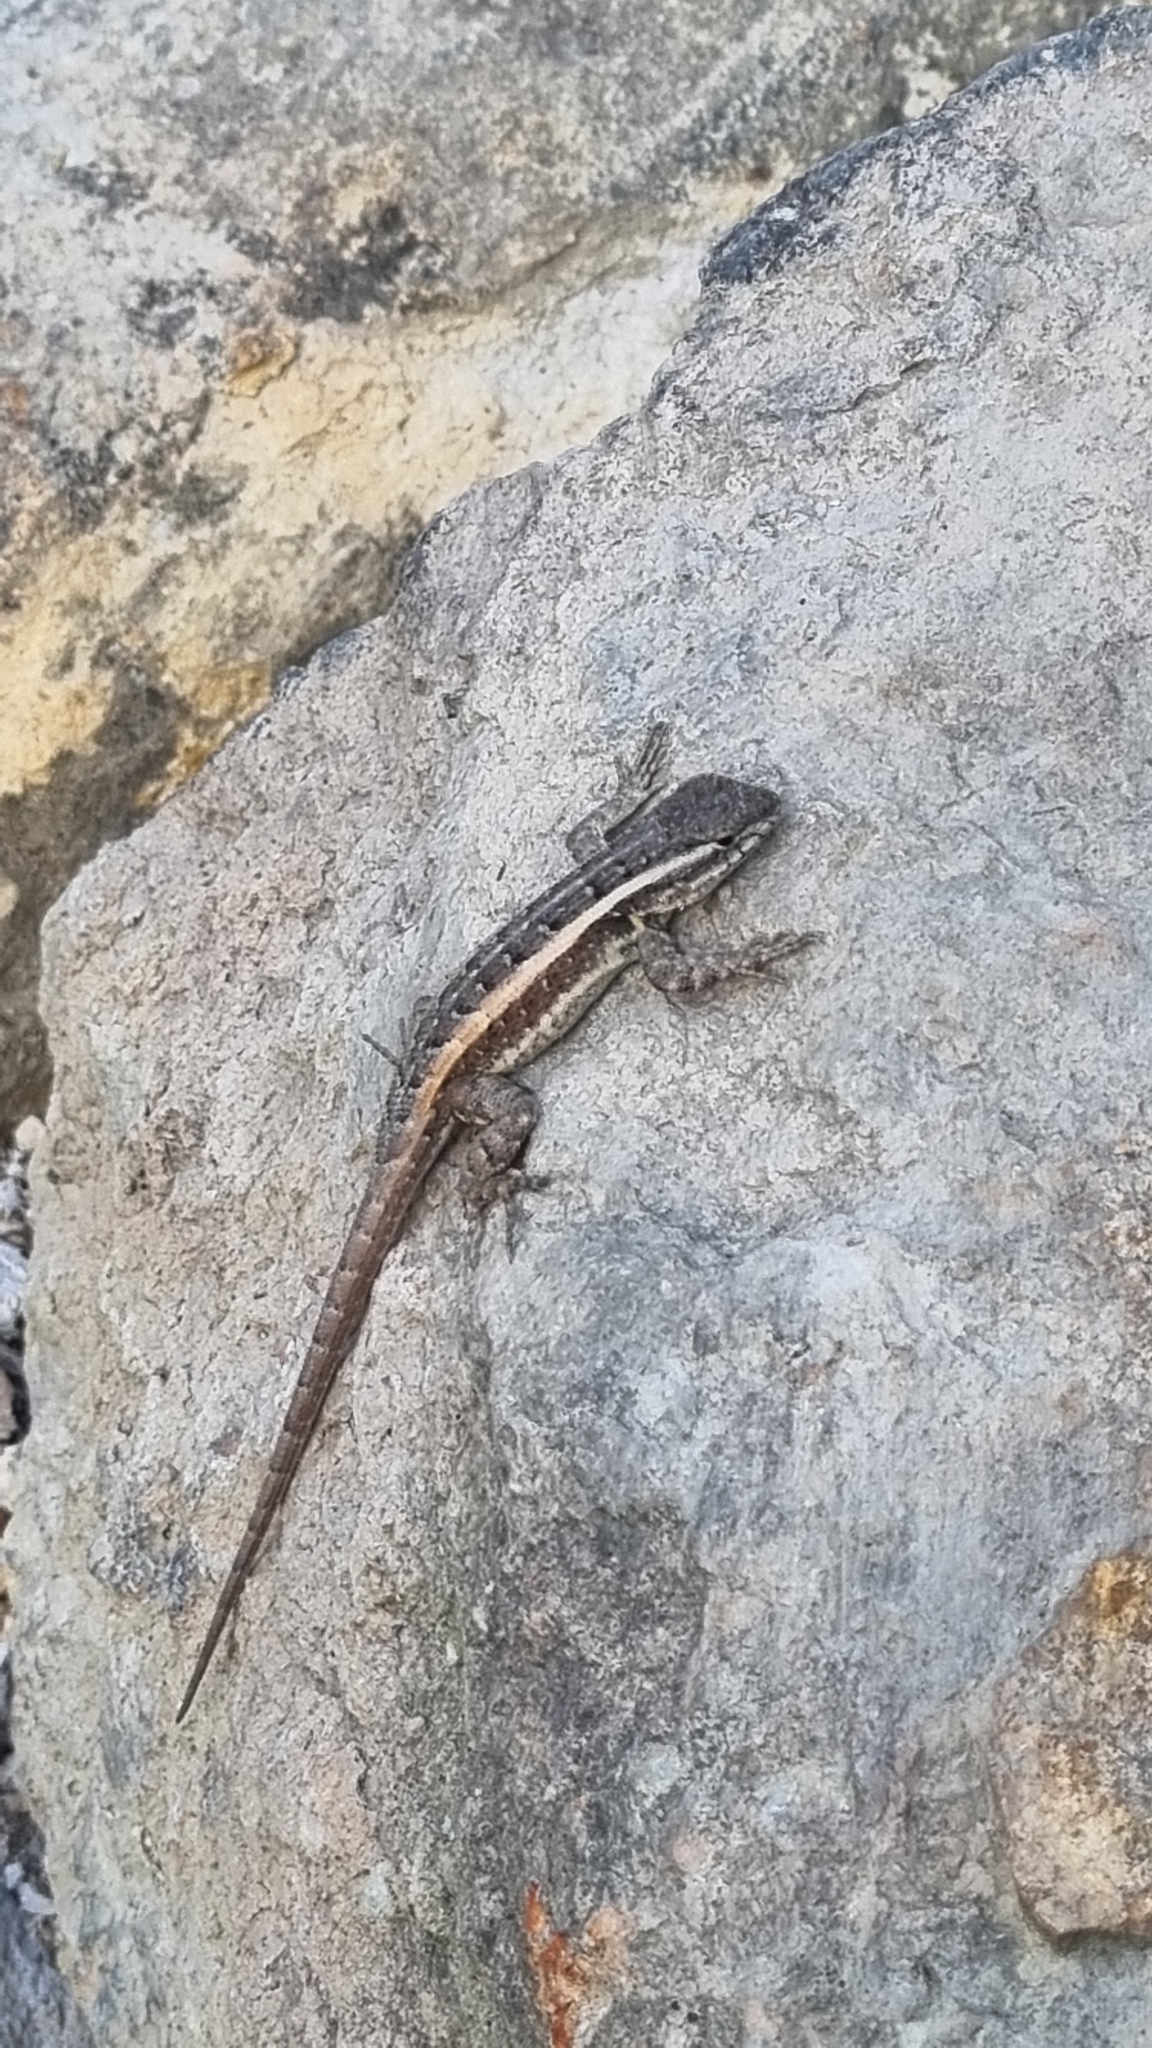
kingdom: Animalia
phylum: Chordata
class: Squamata
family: Phrynosomatidae
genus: Sceloporus
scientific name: Sceloporus variabilis
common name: Rosebelly lizard
